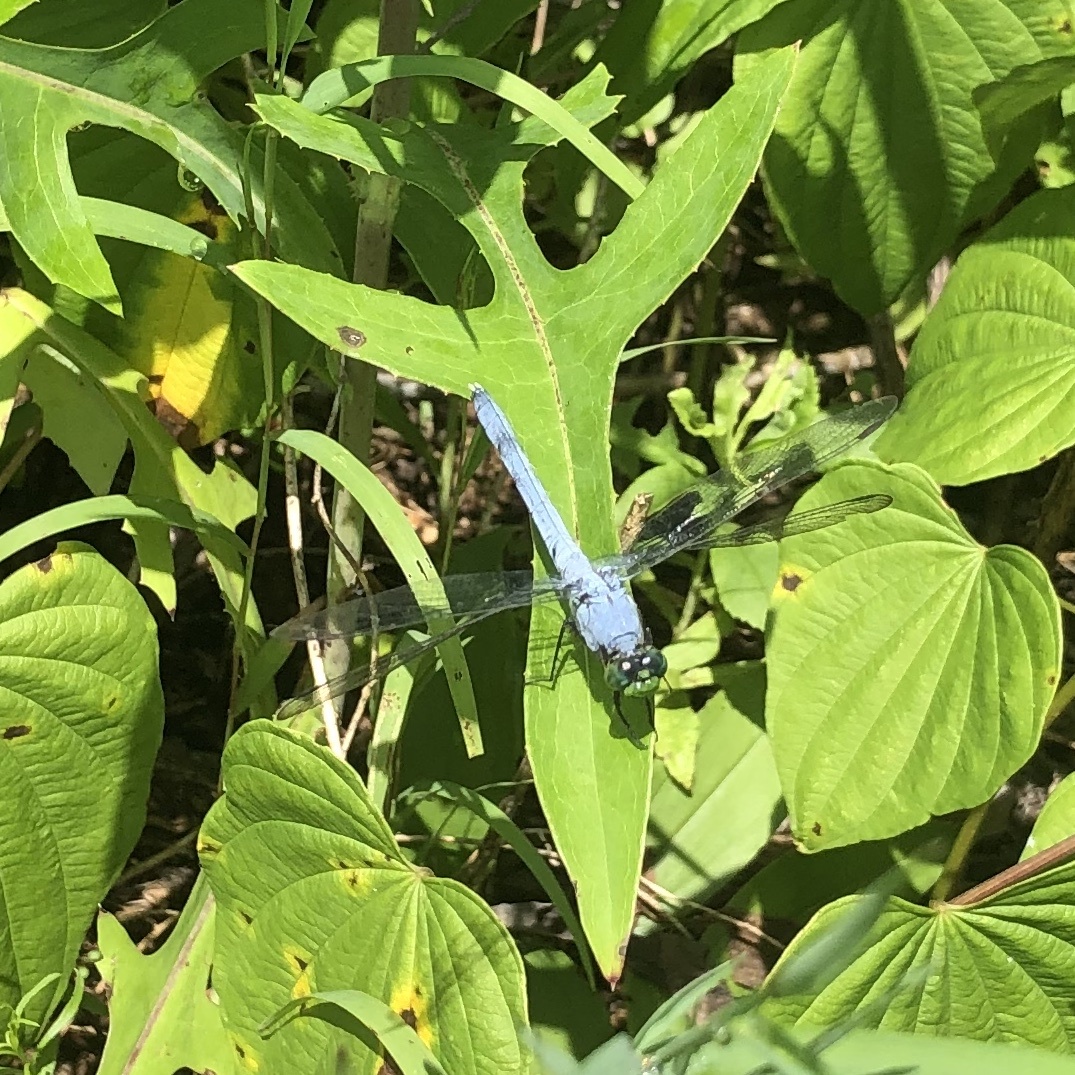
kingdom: Animalia
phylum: Arthropoda
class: Insecta
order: Odonata
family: Libellulidae
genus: Erythemis
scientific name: Erythemis simplicicollis
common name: Eastern pondhawk
